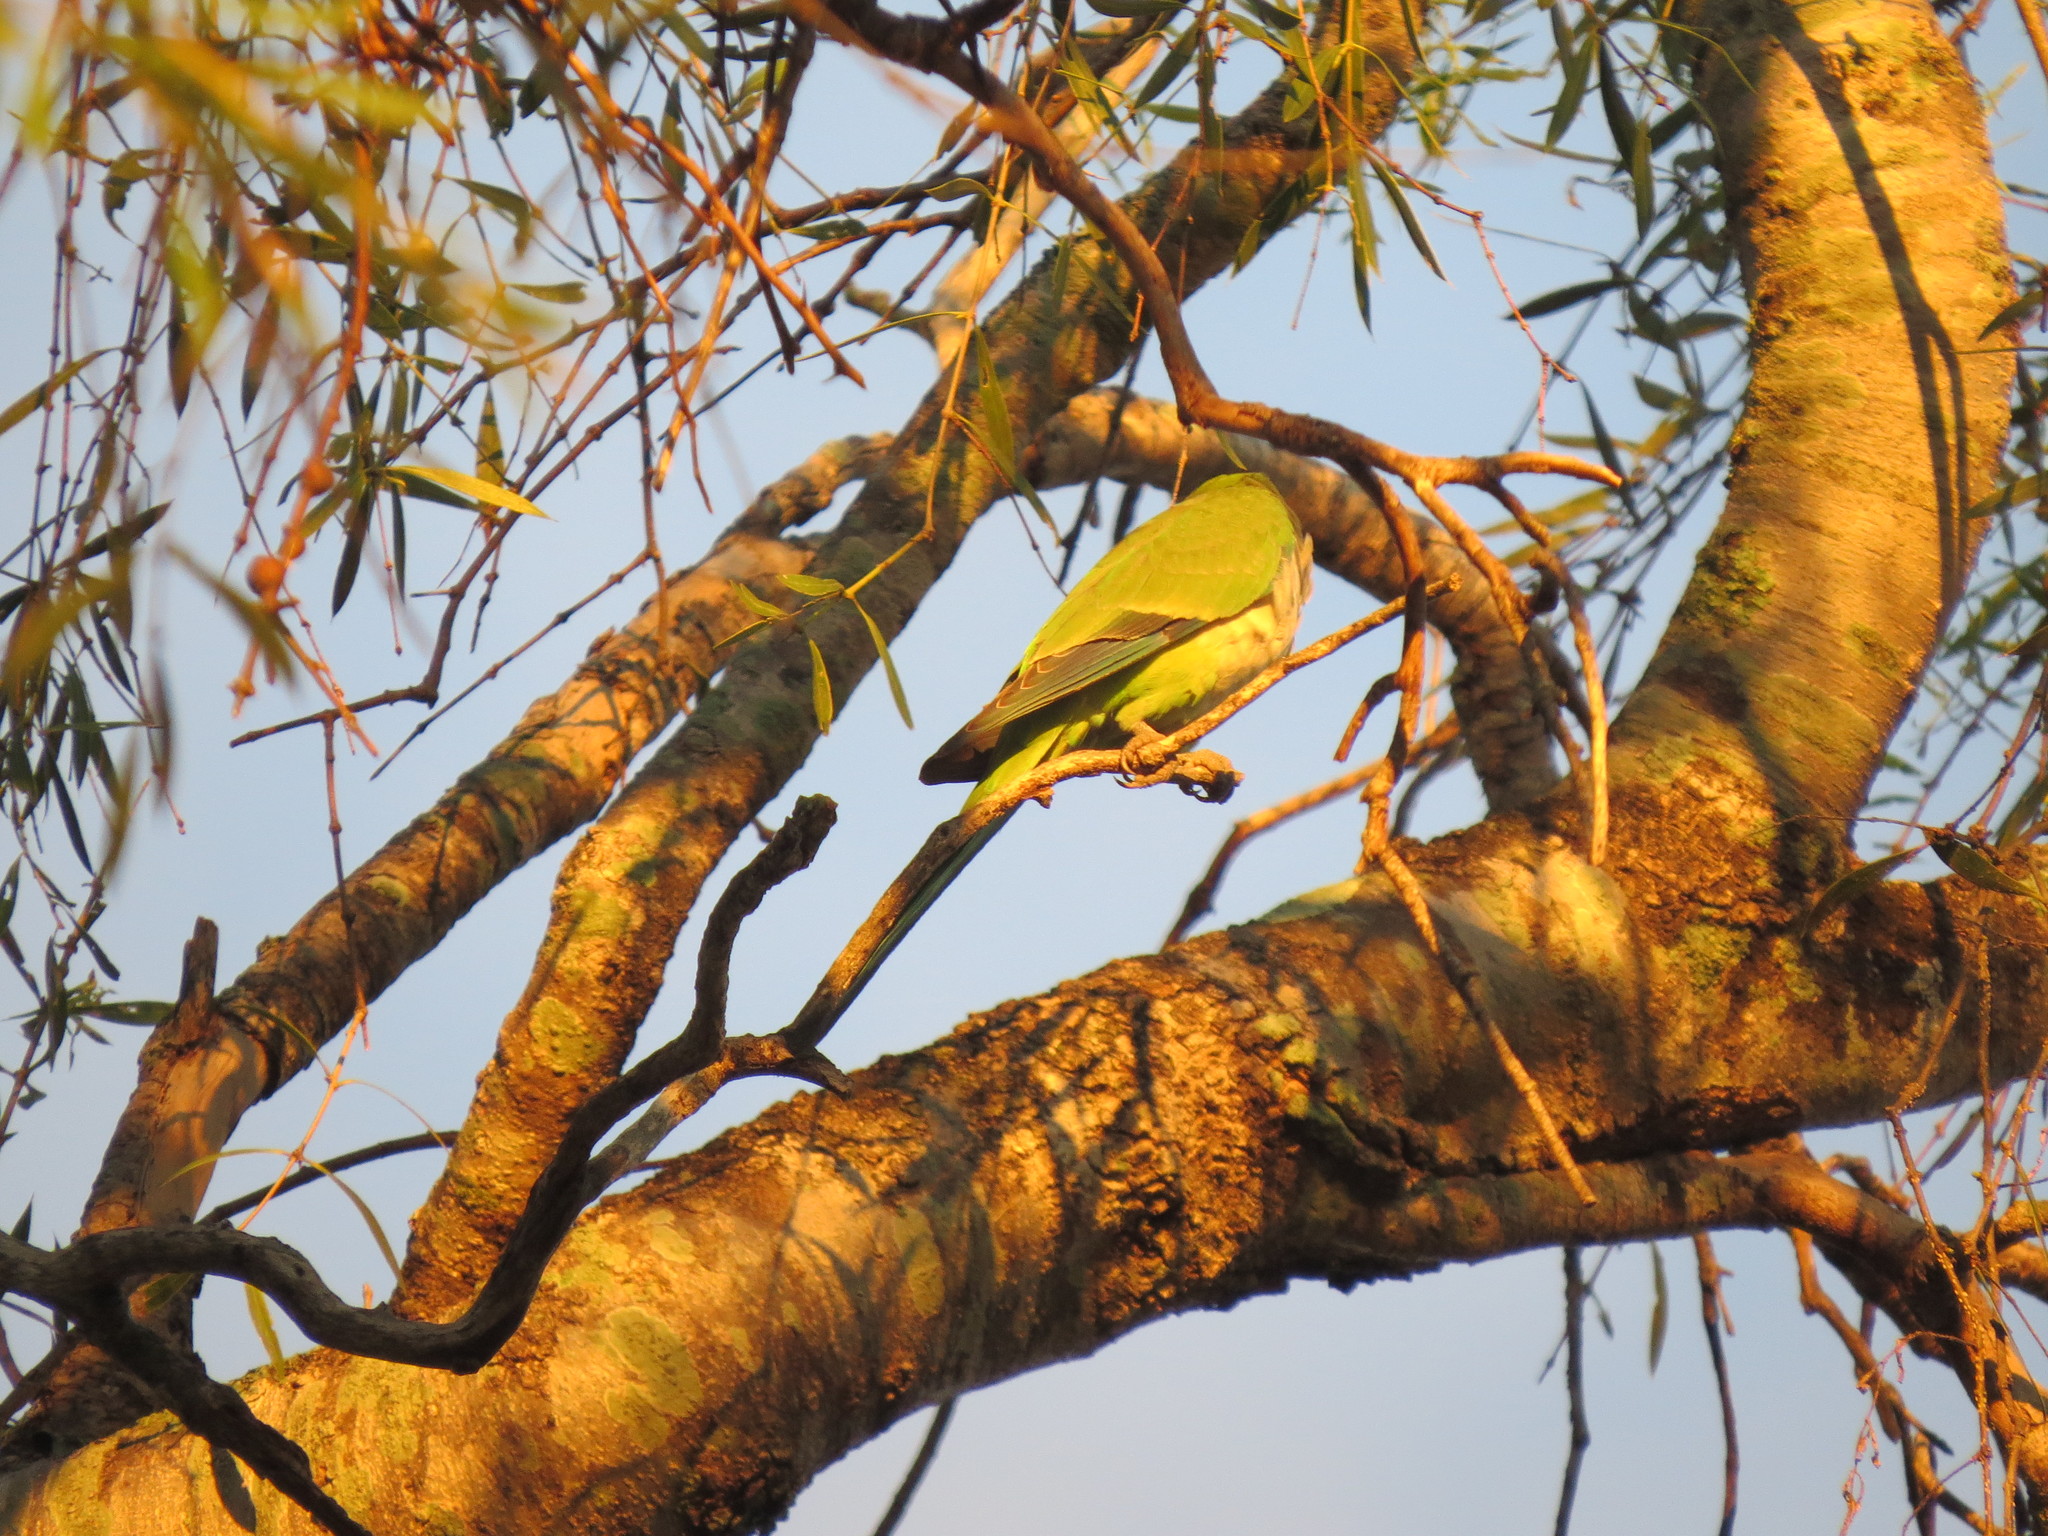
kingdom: Animalia
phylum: Chordata
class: Aves
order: Psittaciformes
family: Psittacidae
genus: Myiopsitta
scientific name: Myiopsitta monachus
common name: Monk parakeet
